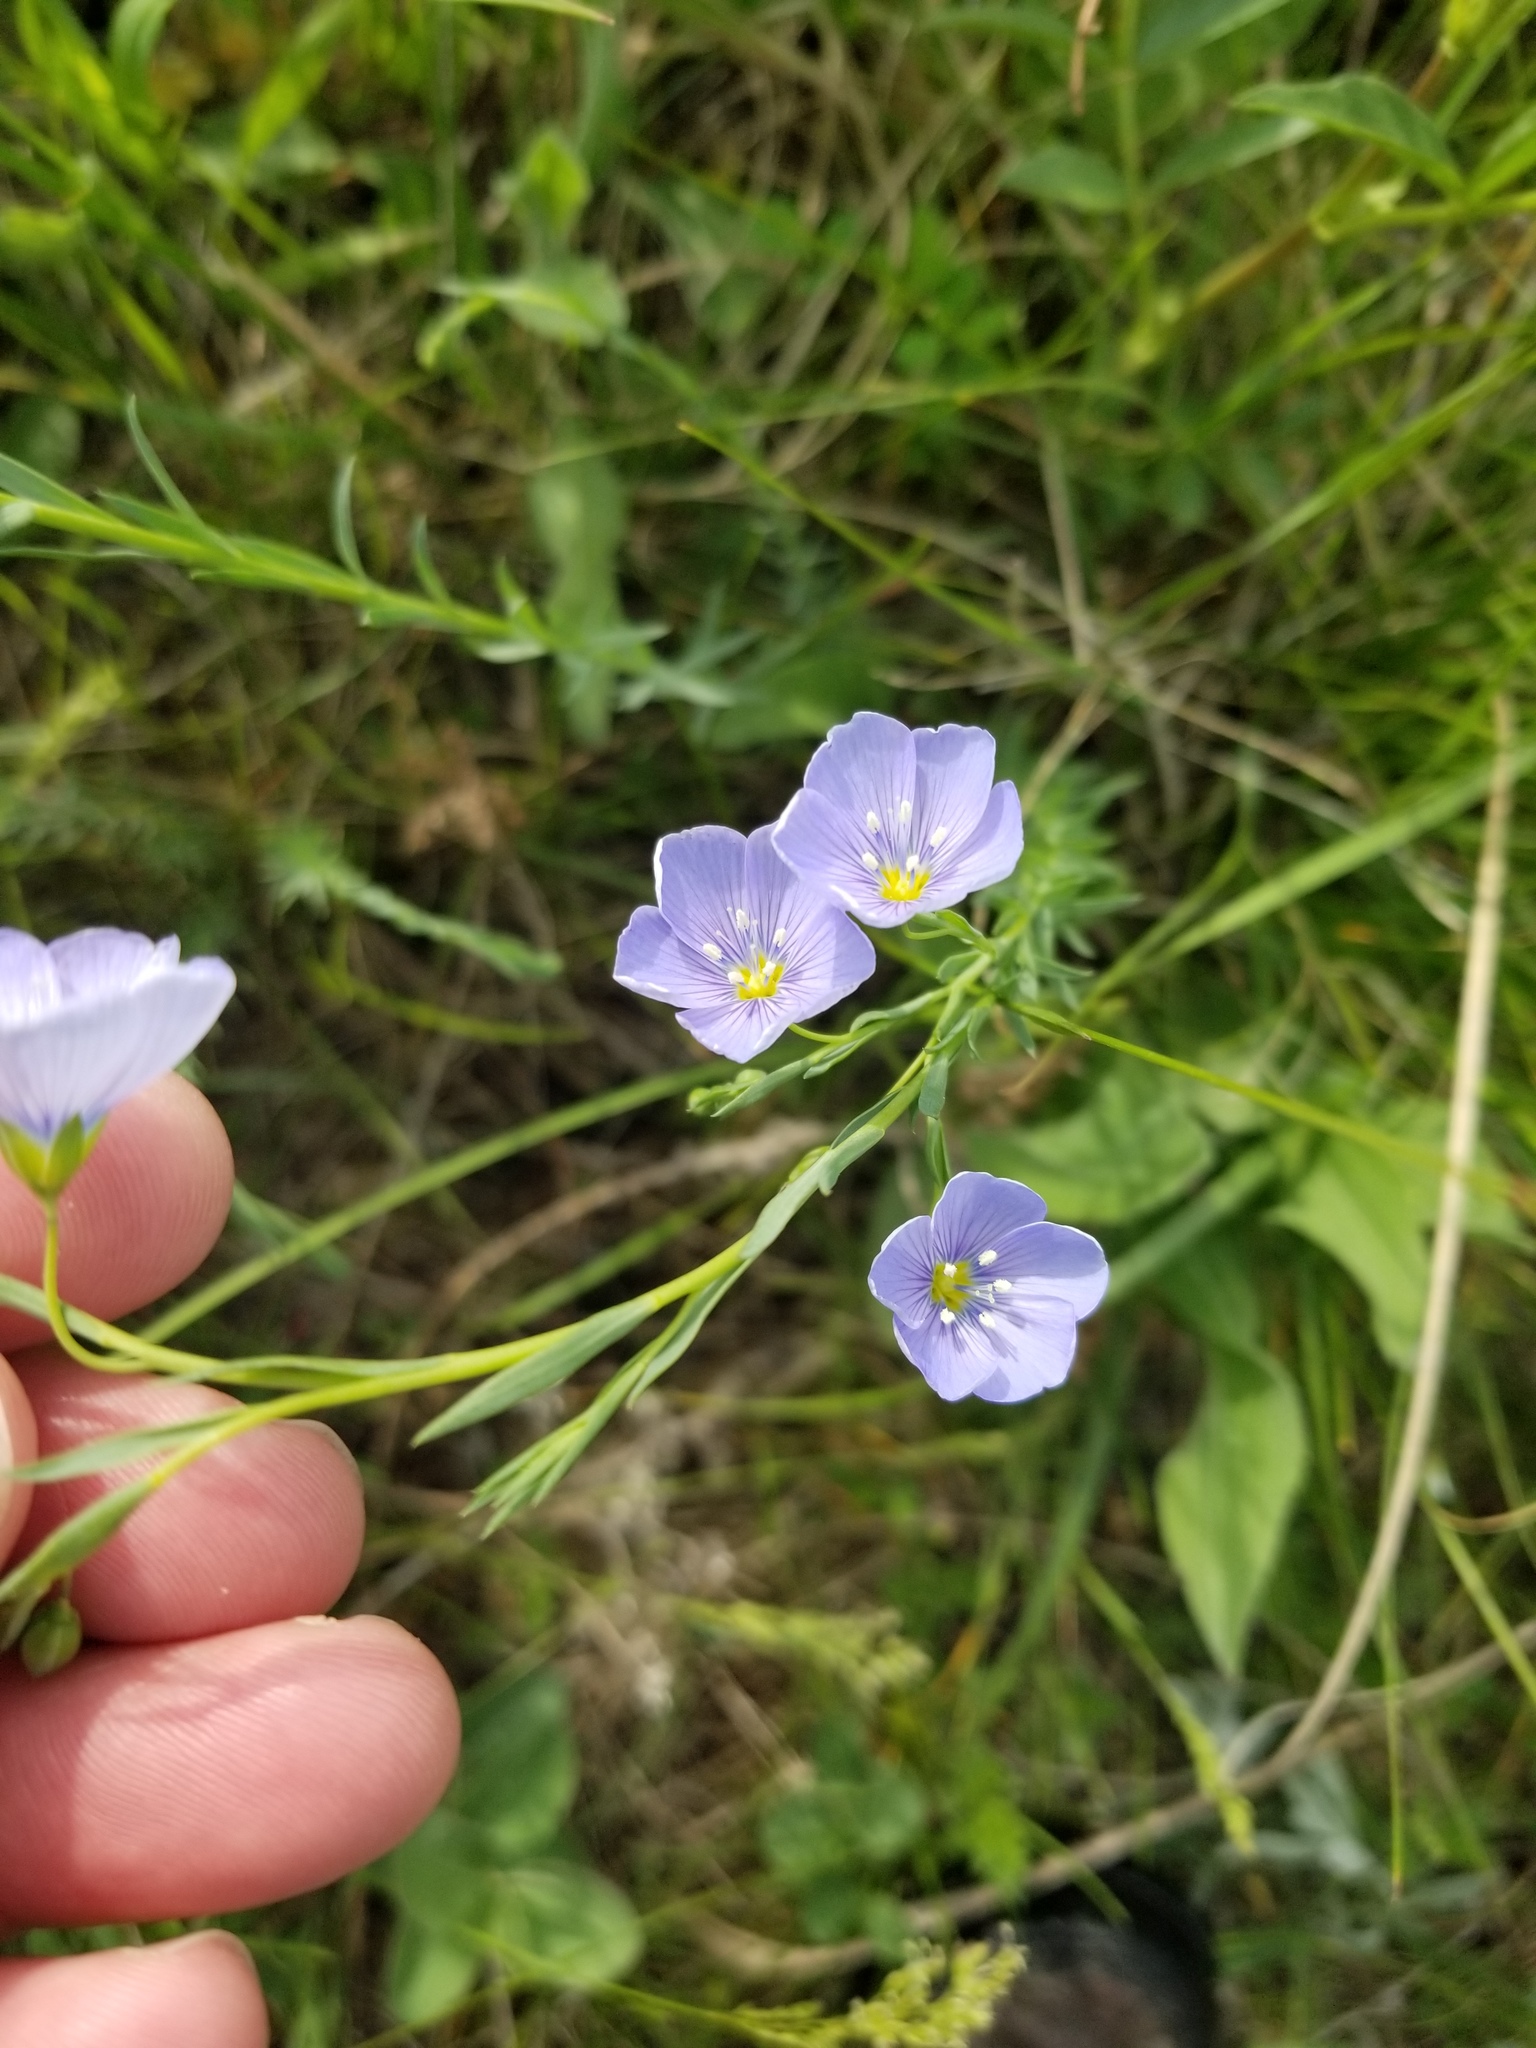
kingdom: Plantae
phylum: Tracheophyta
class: Magnoliopsida
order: Malpighiales
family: Linaceae
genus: Linum
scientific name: Linum lewisii
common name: Prairie flax
